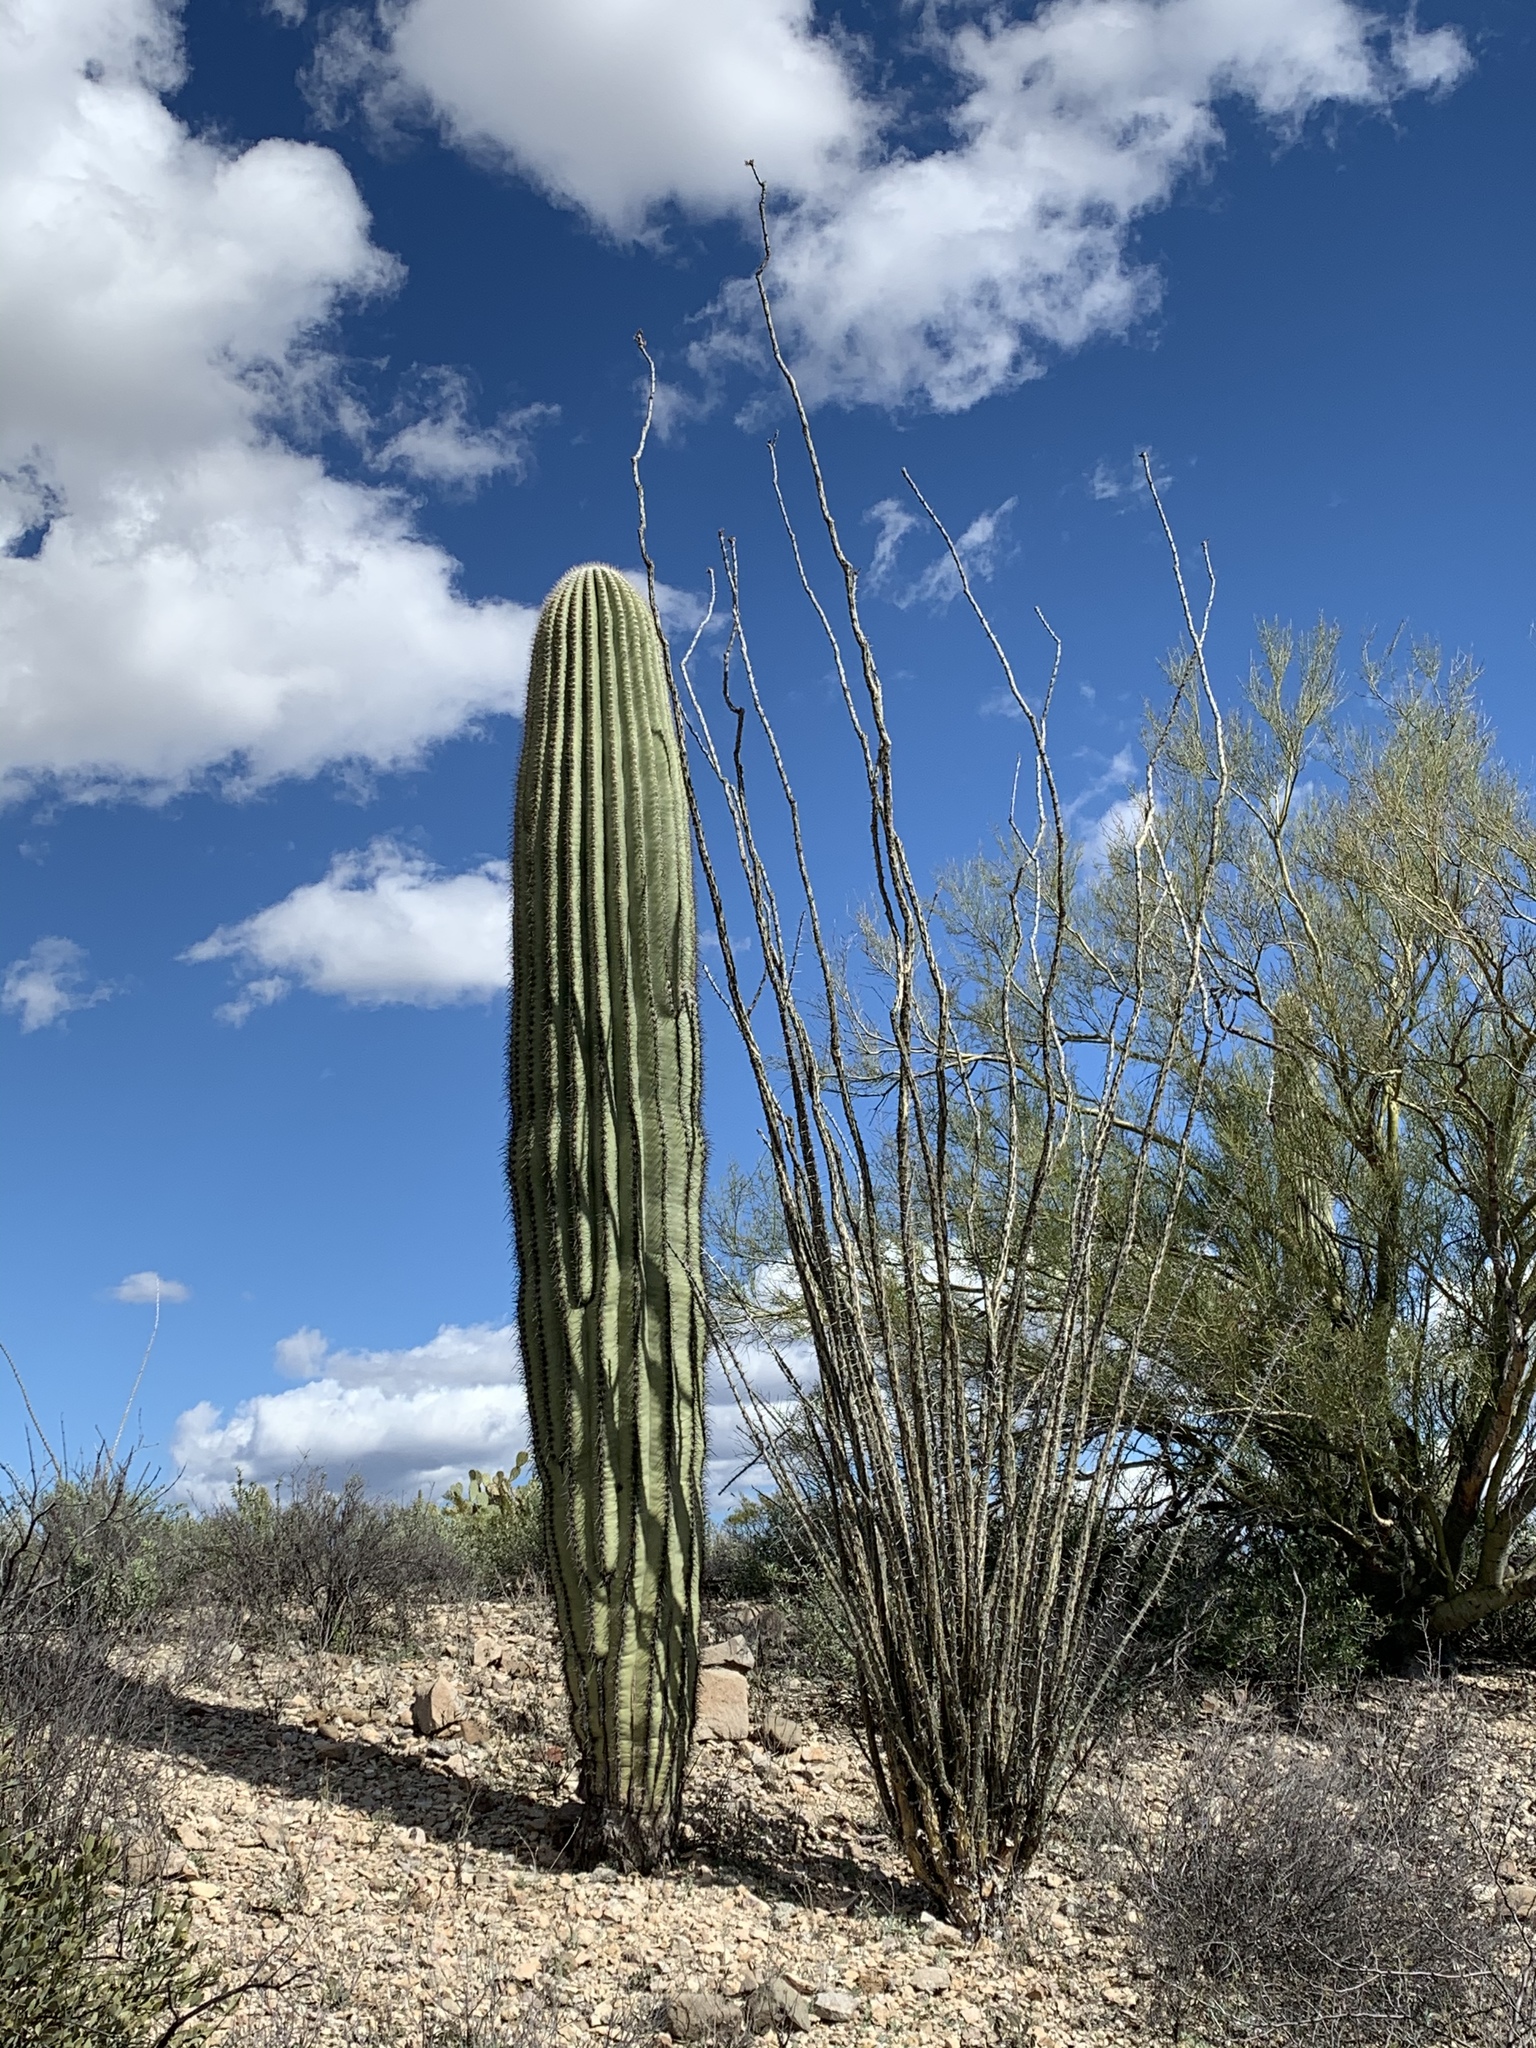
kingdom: Plantae
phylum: Tracheophyta
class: Magnoliopsida
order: Caryophyllales
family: Cactaceae
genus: Carnegiea
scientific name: Carnegiea gigantea
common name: Saguaro
